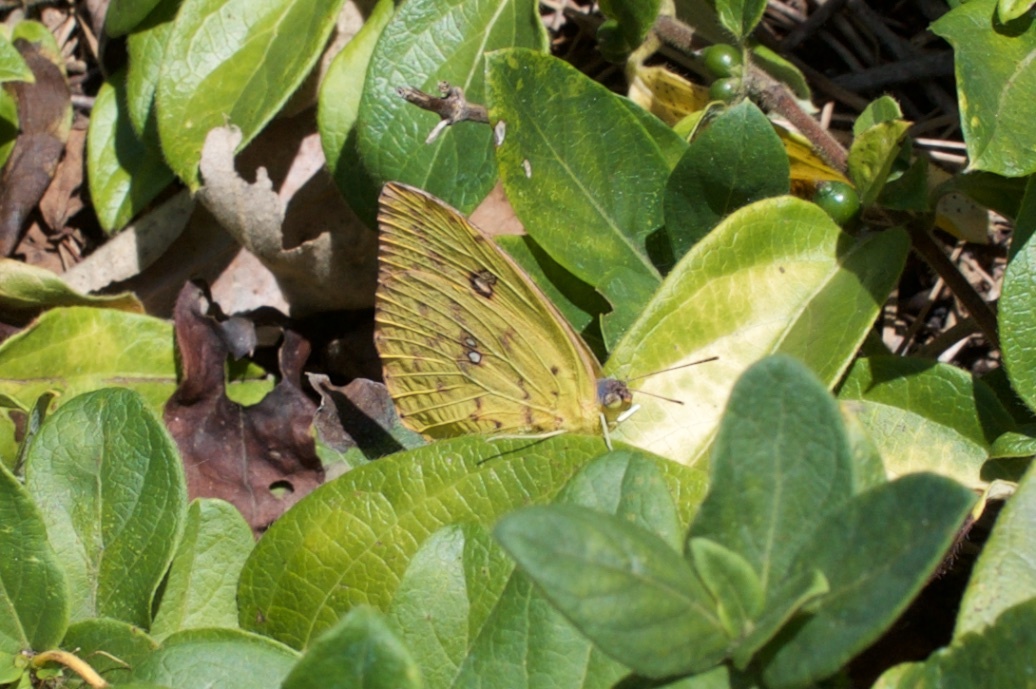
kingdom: Animalia
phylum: Arthropoda
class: Insecta
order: Lepidoptera
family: Pieridae
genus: Phoebis
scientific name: Phoebis sennae
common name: Cloudless sulphur
